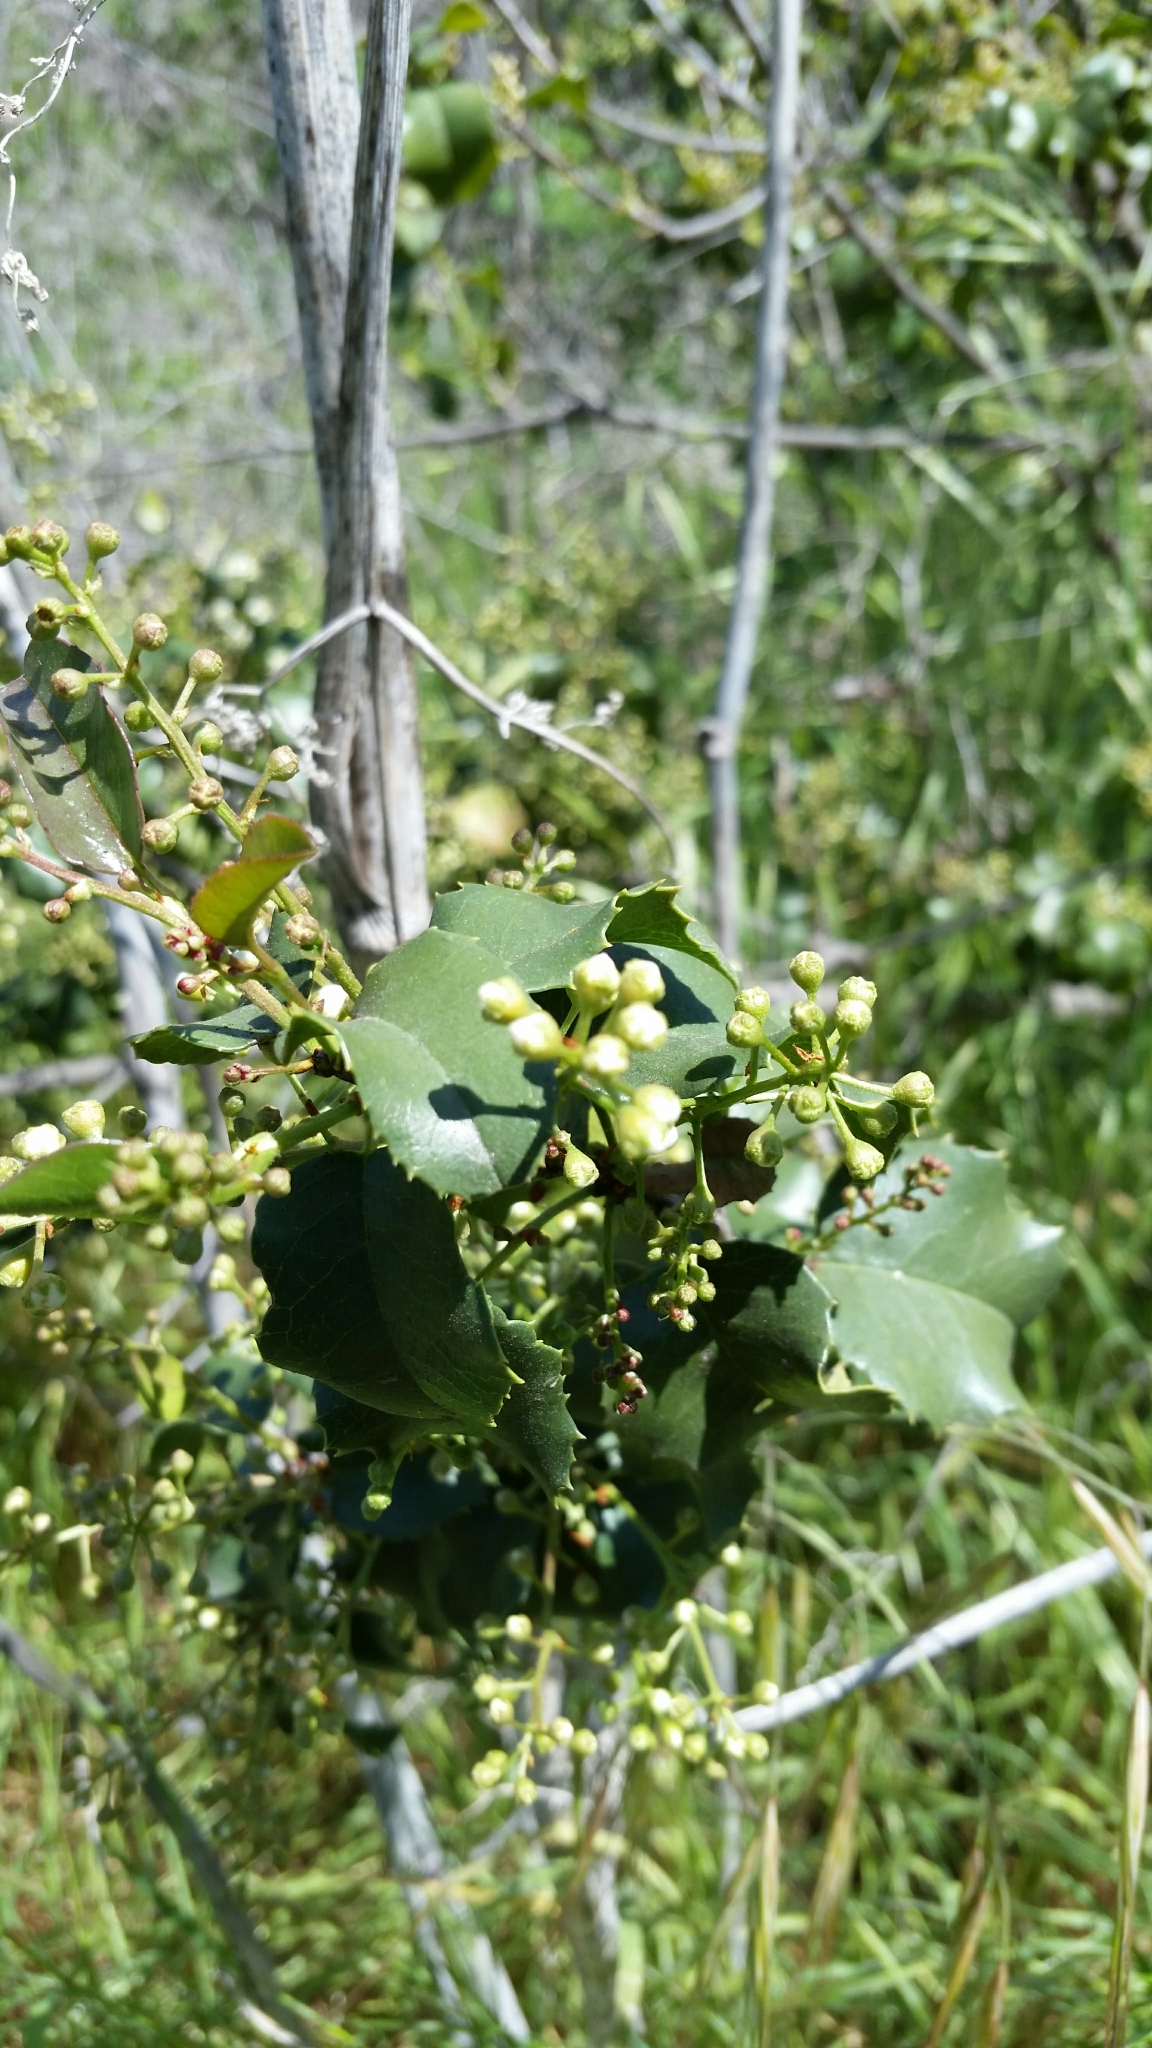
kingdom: Plantae
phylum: Tracheophyta
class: Magnoliopsida
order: Rosales
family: Rosaceae
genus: Prunus
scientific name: Prunus ilicifolia
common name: Hollyleaf cherry
